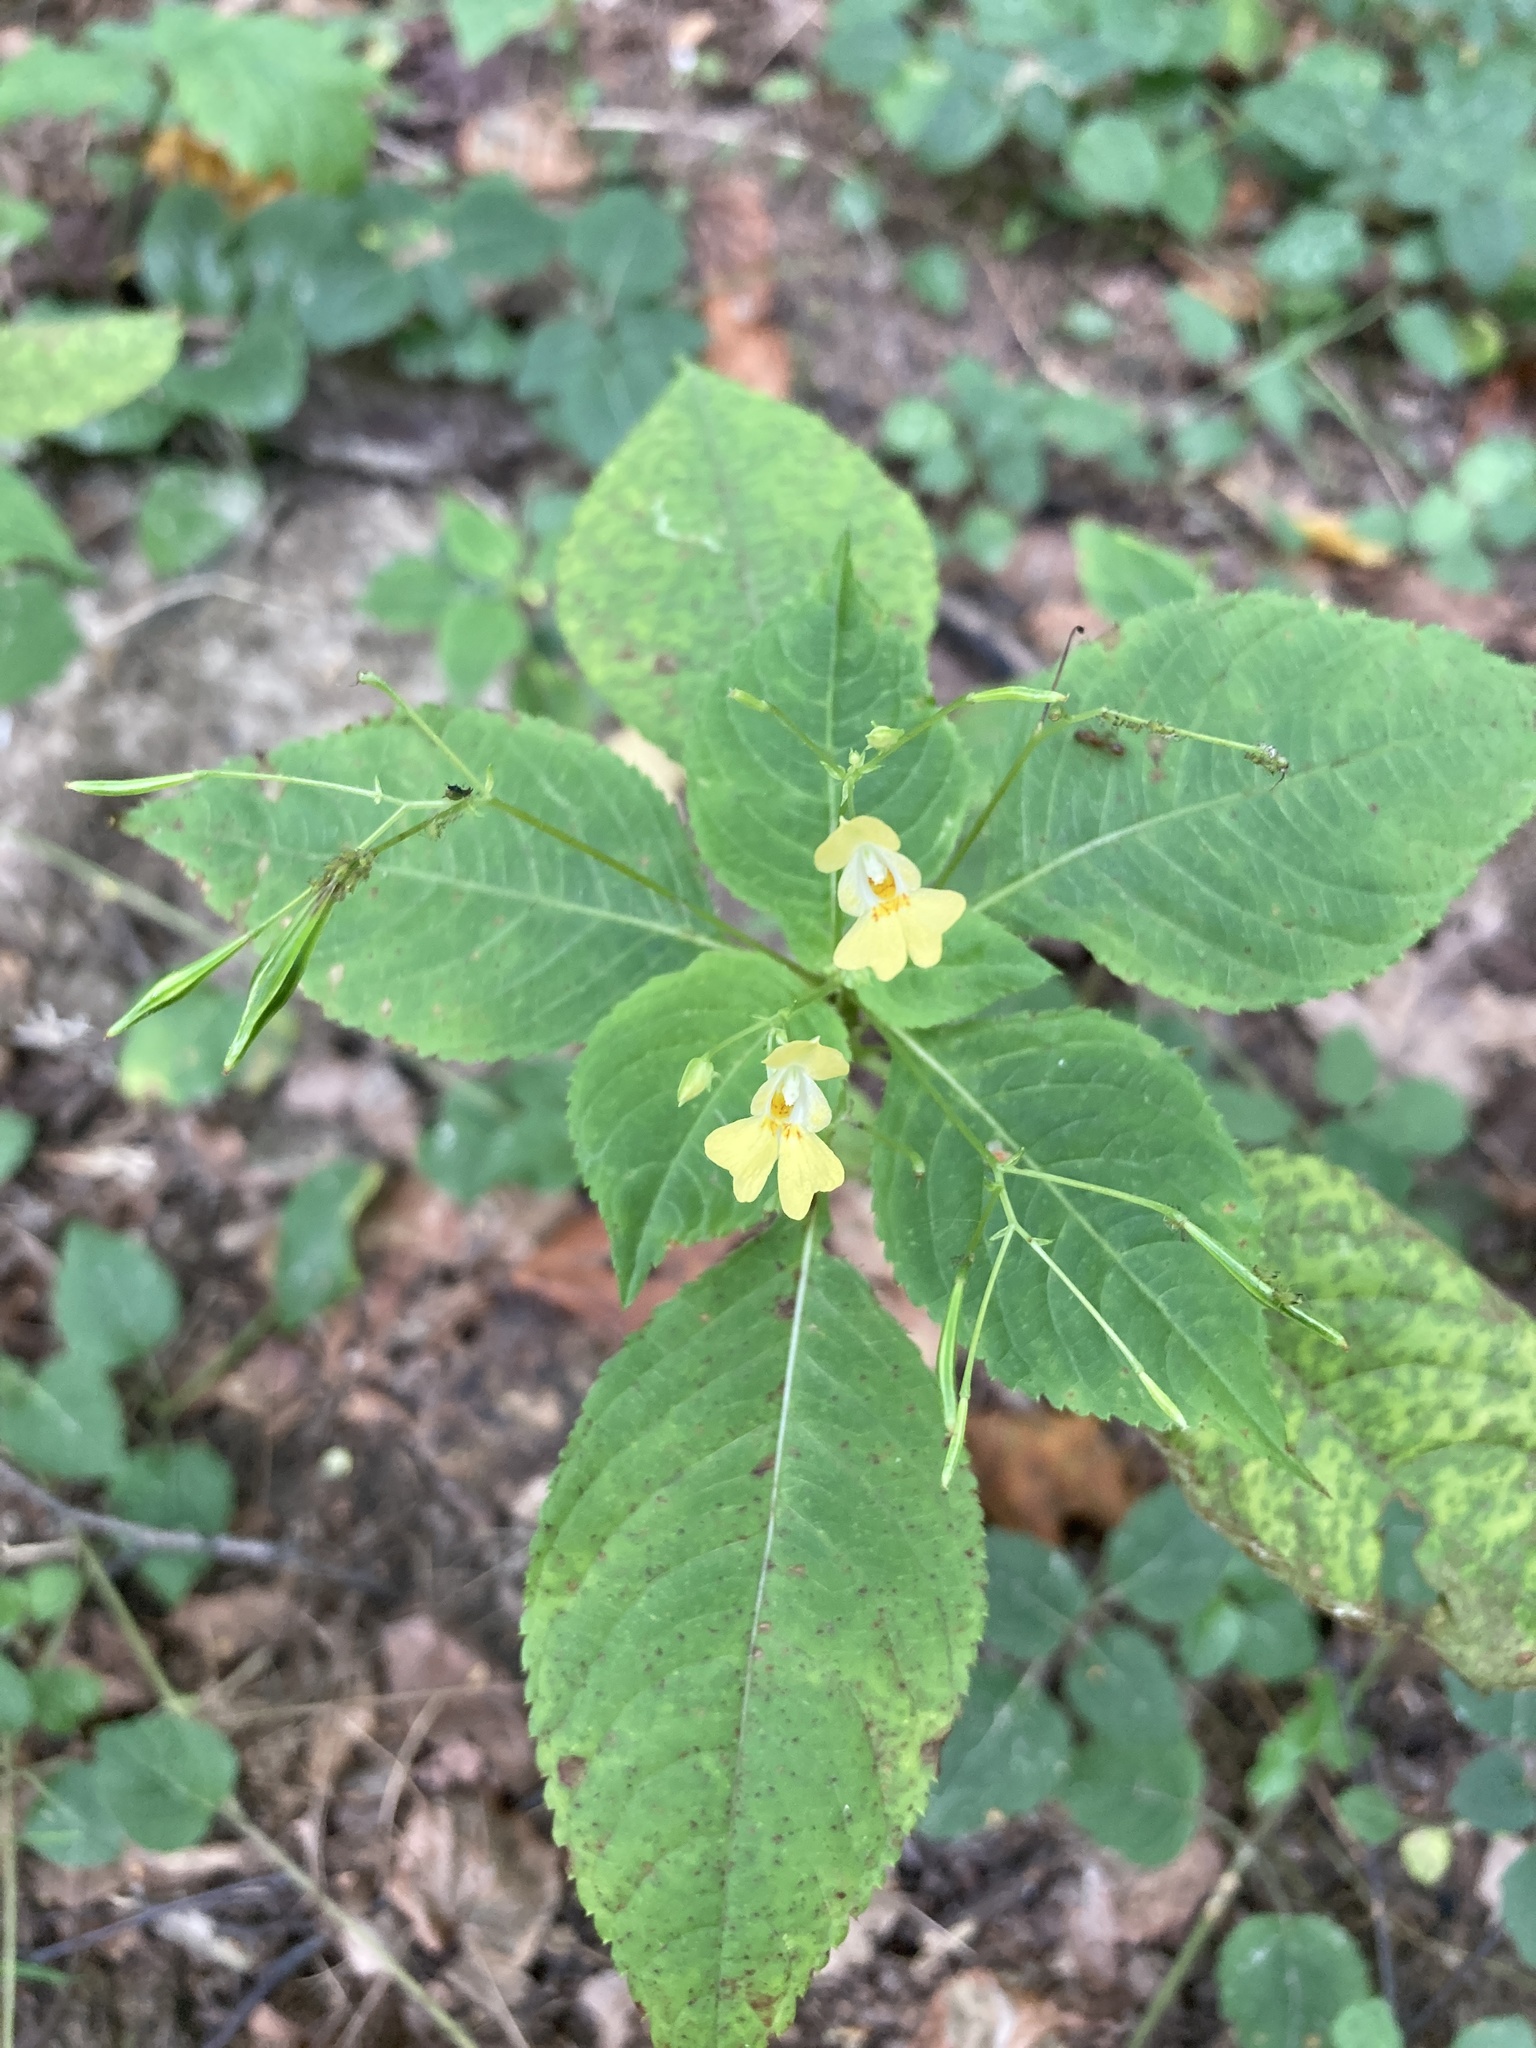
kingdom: Plantae
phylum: Tracheophyta
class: Magnoliopsida
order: Ericales
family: Balsaminaceae
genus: Impatiens
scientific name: Impatiens parviflora
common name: Small balsam
